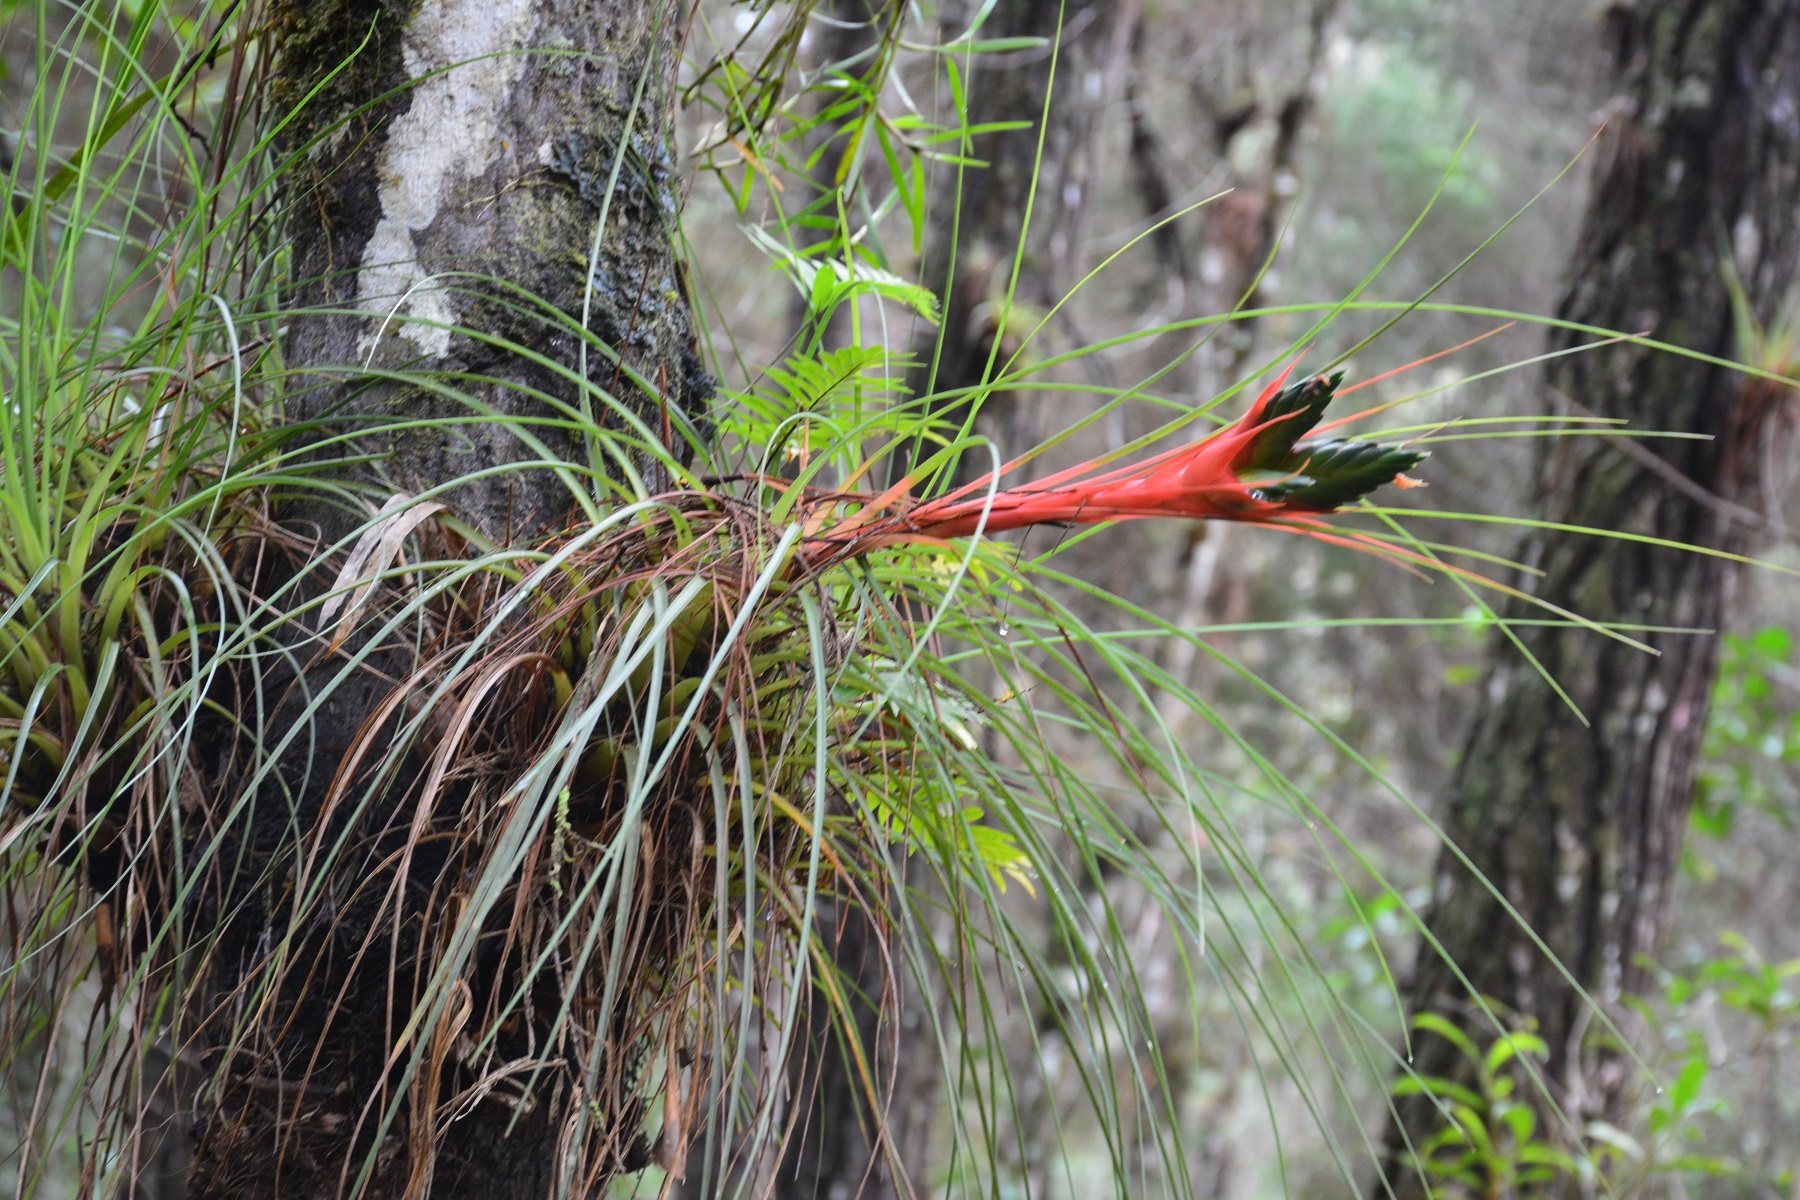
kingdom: Plantae
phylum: Tracheophyta
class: Liliopsida
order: Poales
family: Bromeliaceae
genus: Tillandsia
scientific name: Tillandsia punctulata
